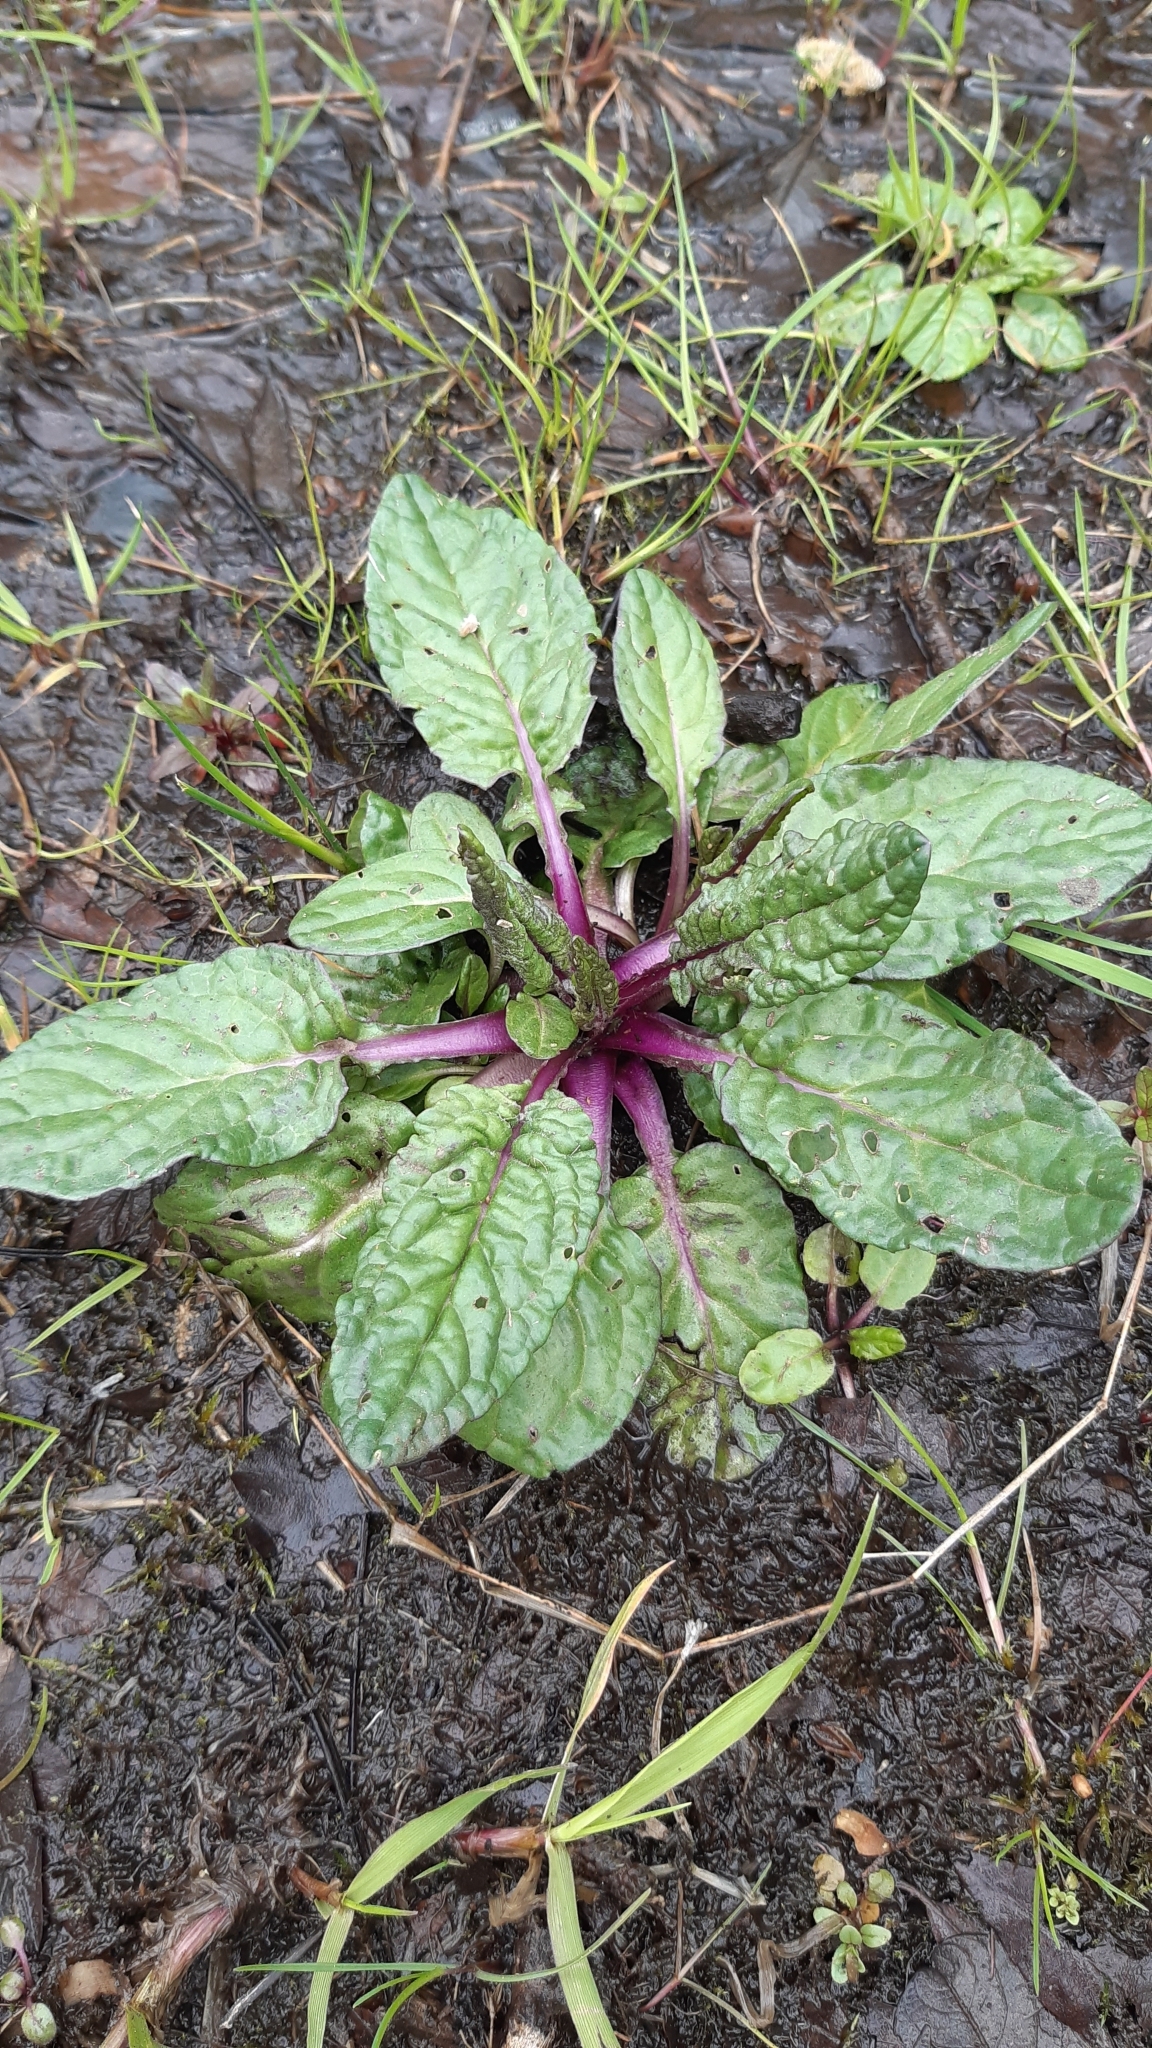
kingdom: Plantae
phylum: Tracheophyta
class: Magnoliopsida
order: Asterales
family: Asteraceae
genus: Jacobaea
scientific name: Jacobaea aquatica
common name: Water ragwort
